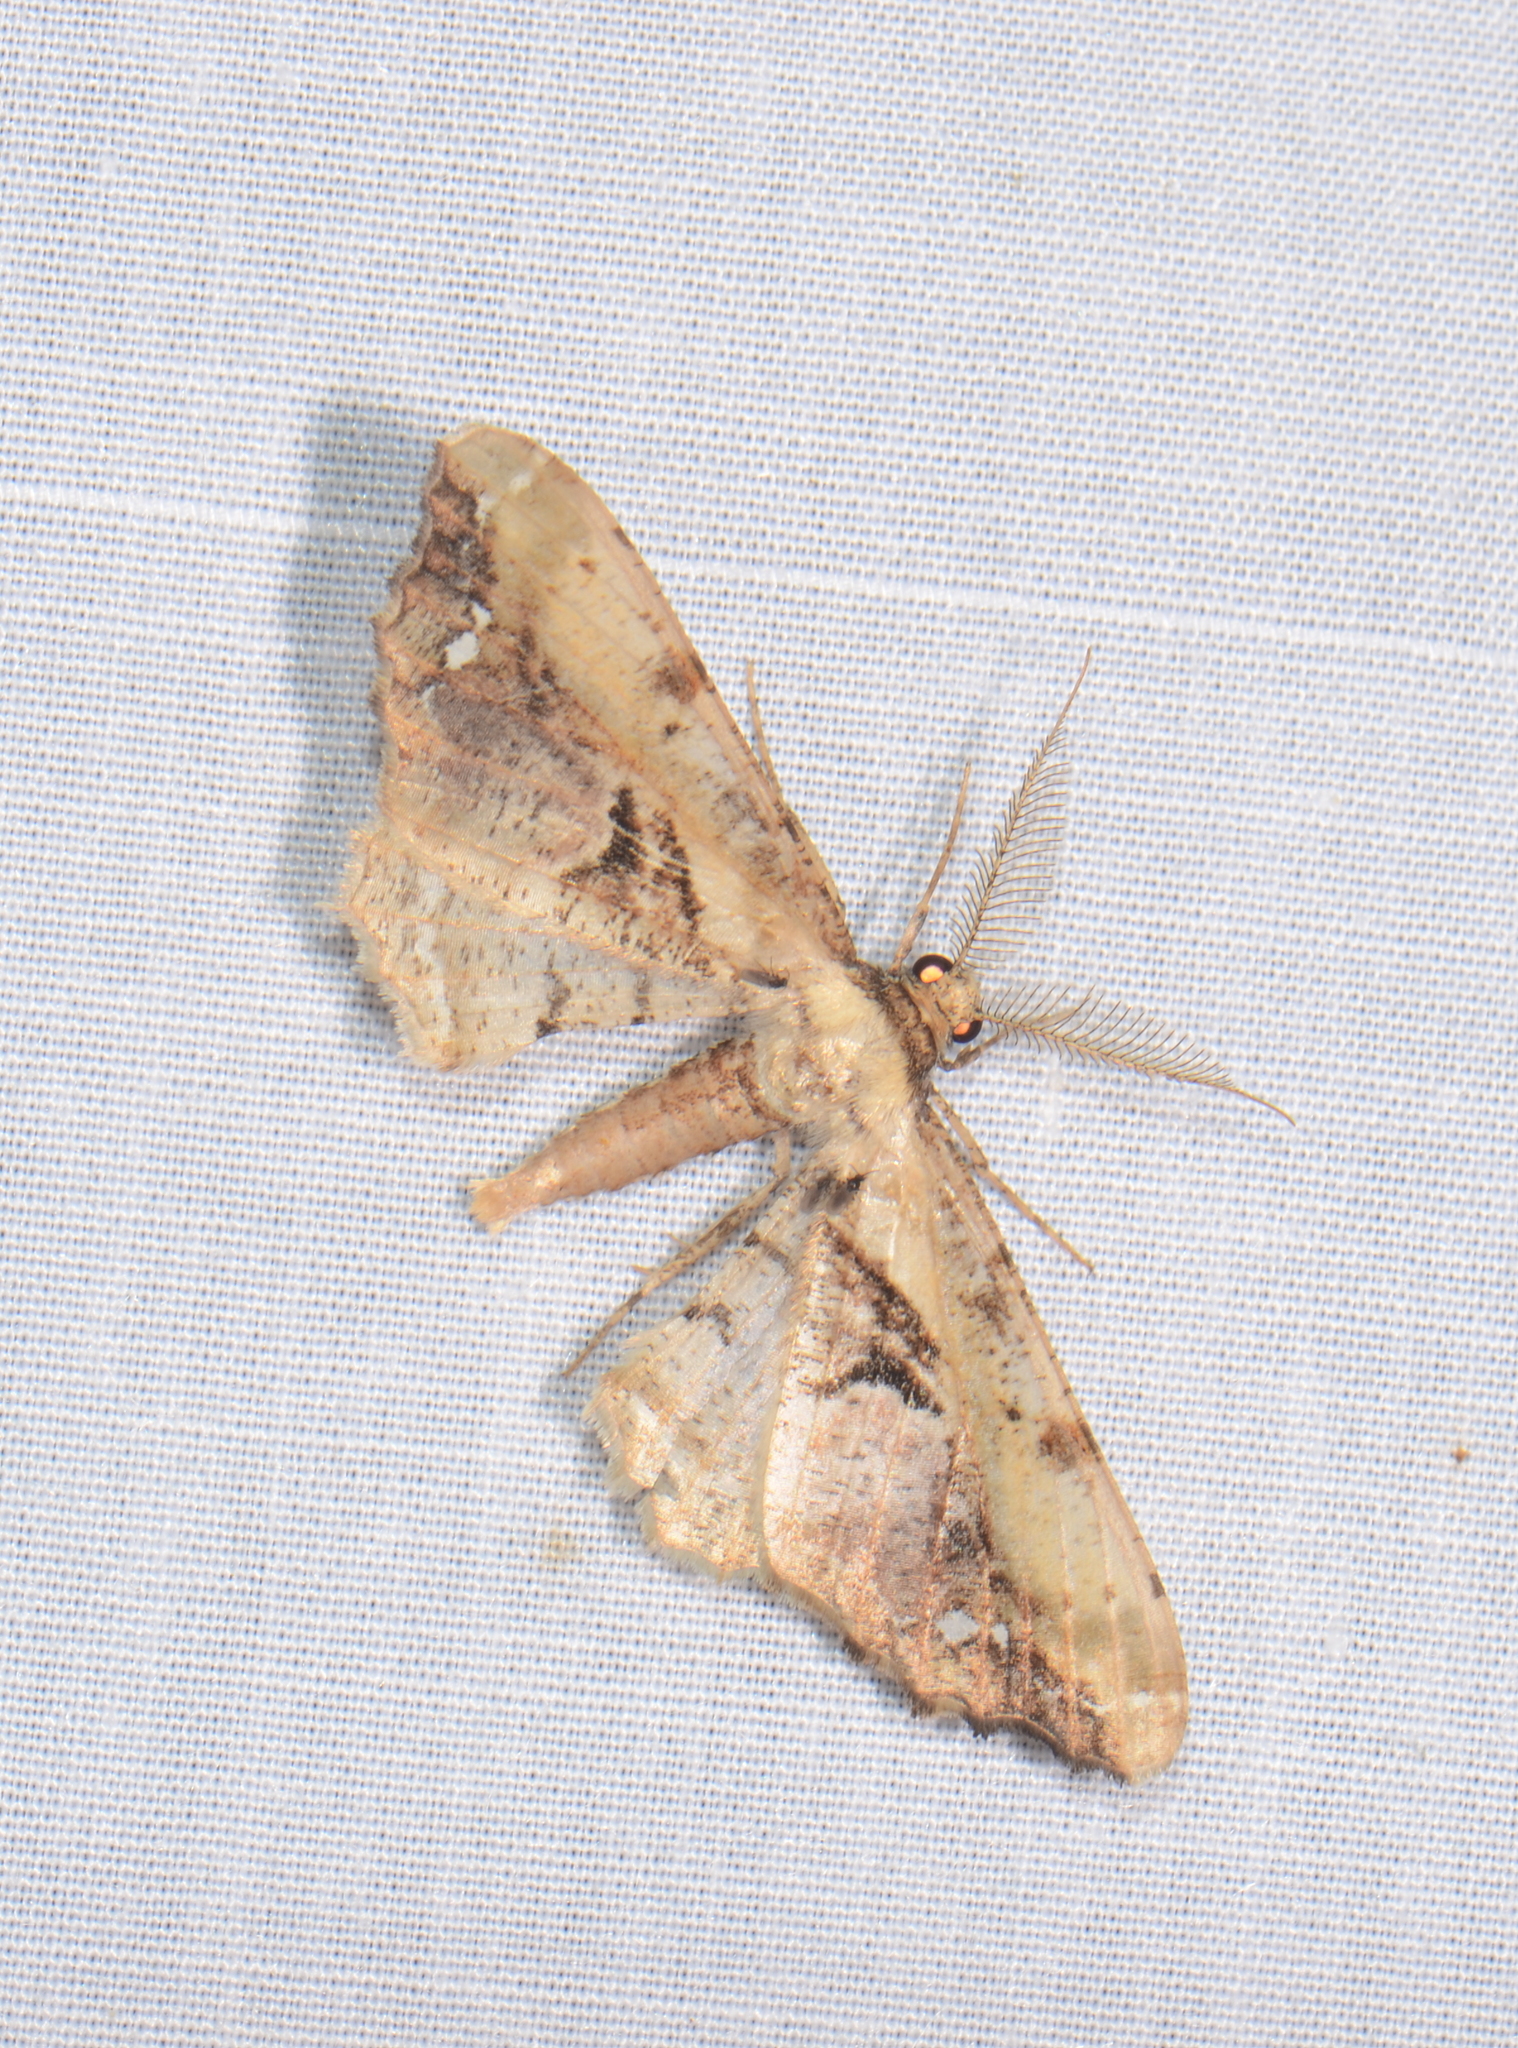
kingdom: Animalia
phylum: Arthropoda
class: Insecta
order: Lepidoptera
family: Geometridae
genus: Apophyga
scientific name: Apophyga apona
